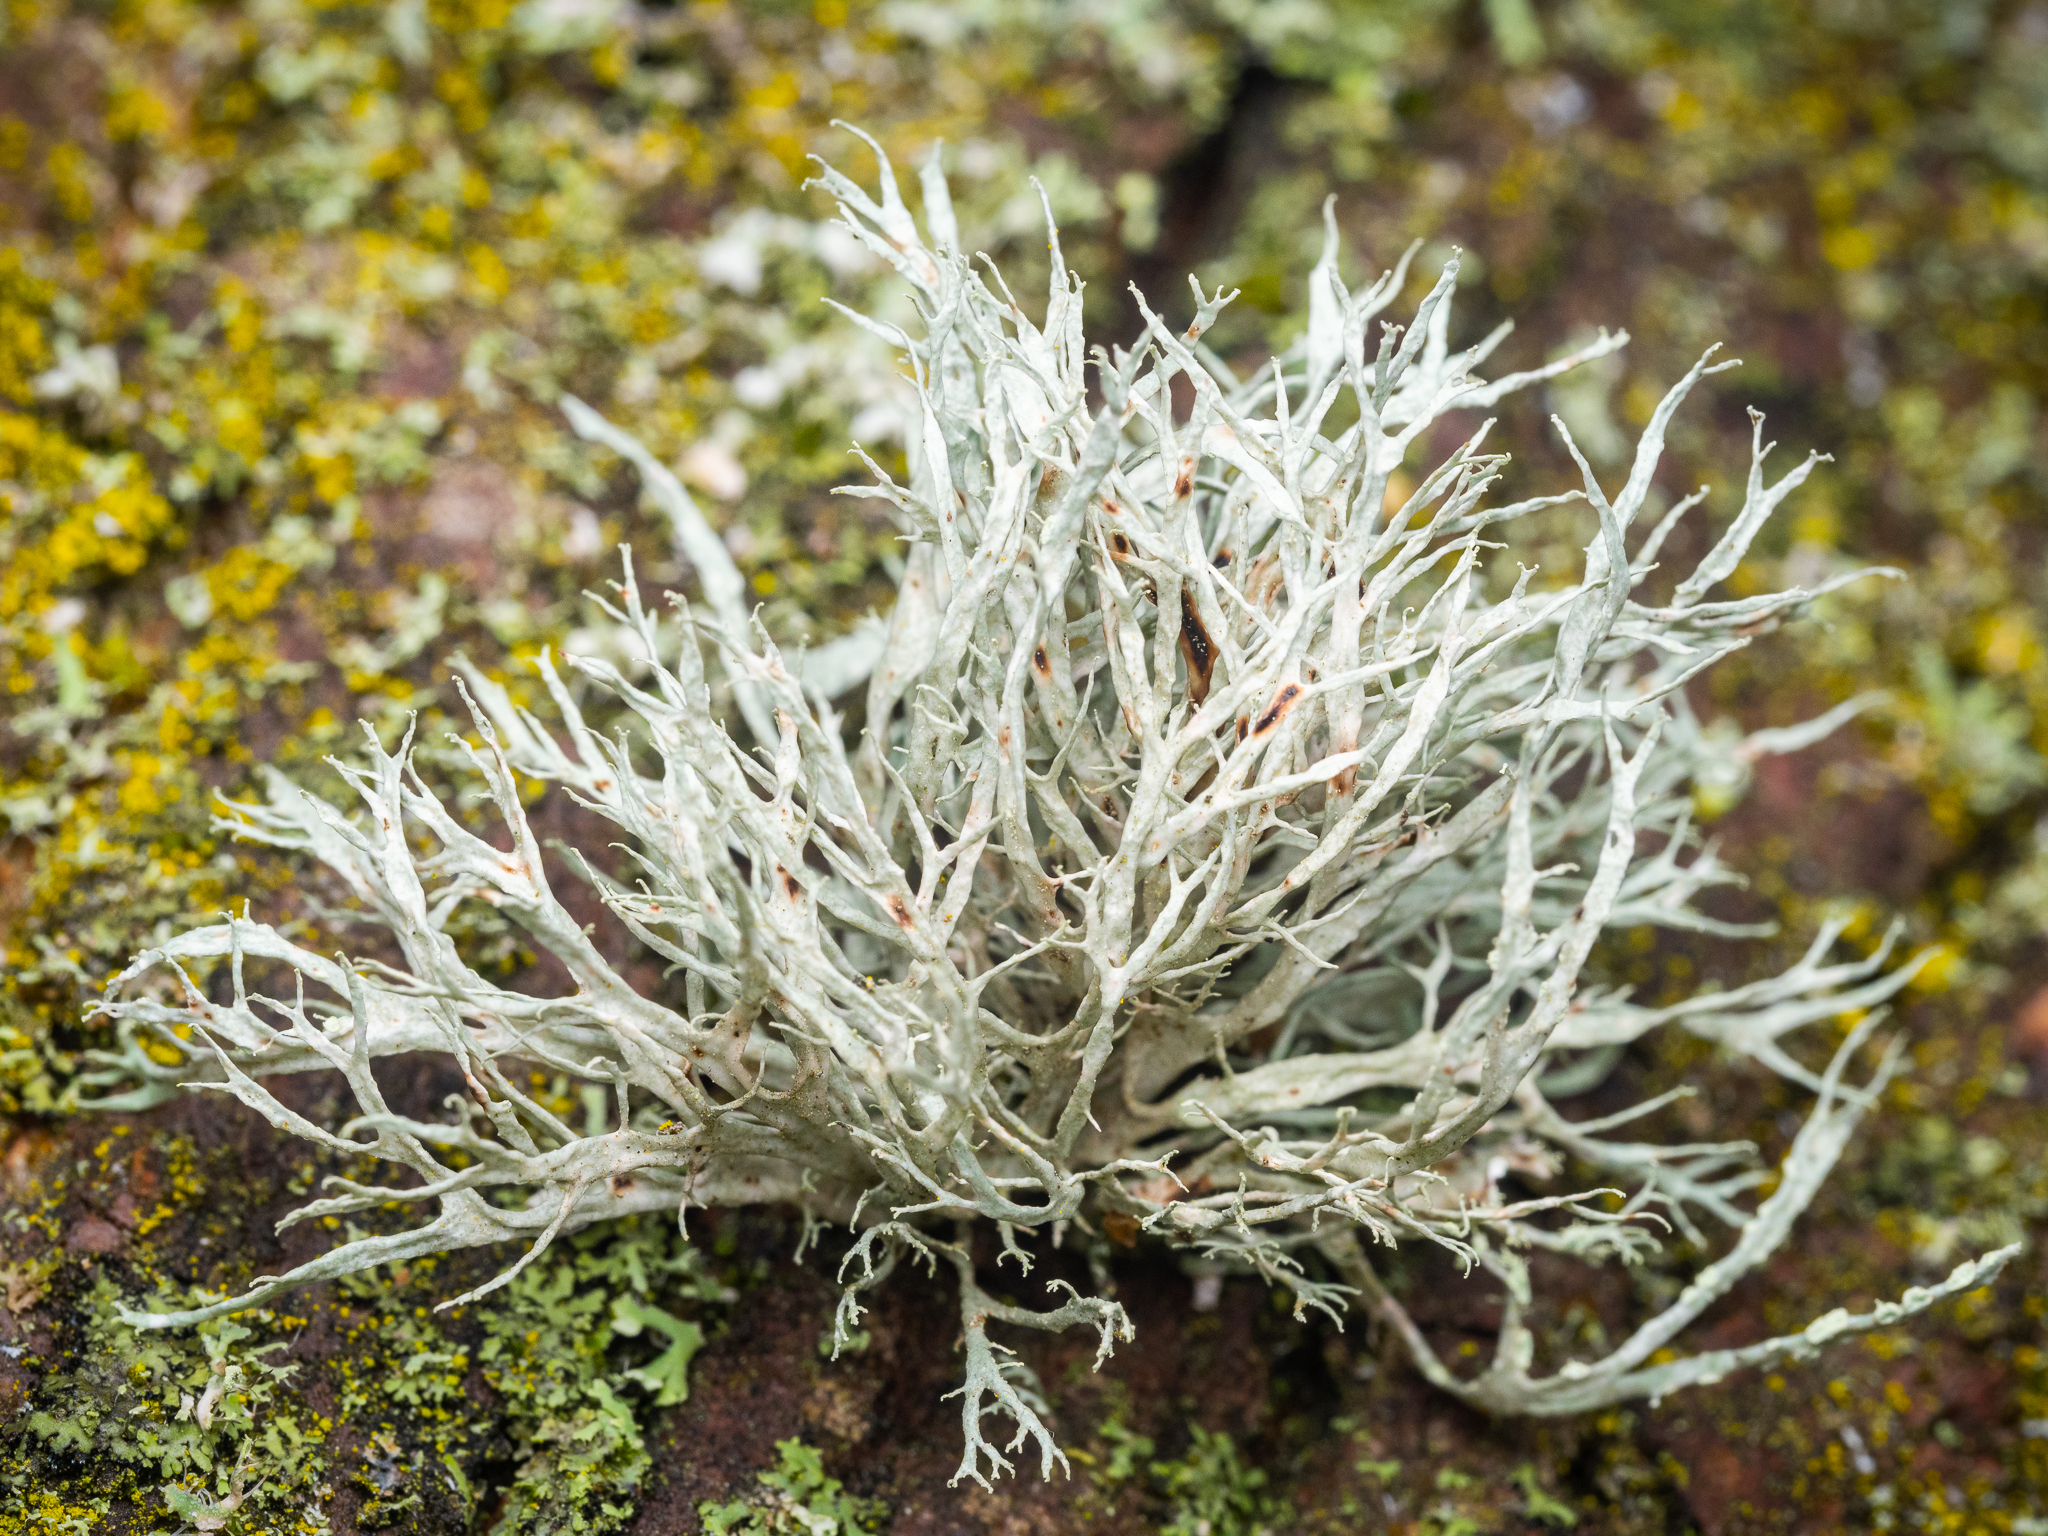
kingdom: Fungi
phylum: Ascomycota
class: Lecanoromycetes
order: Lecanorales
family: Ramalinaceae
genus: Ramalina
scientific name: Ramalina farinacea
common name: Farinose cartilage lichen
